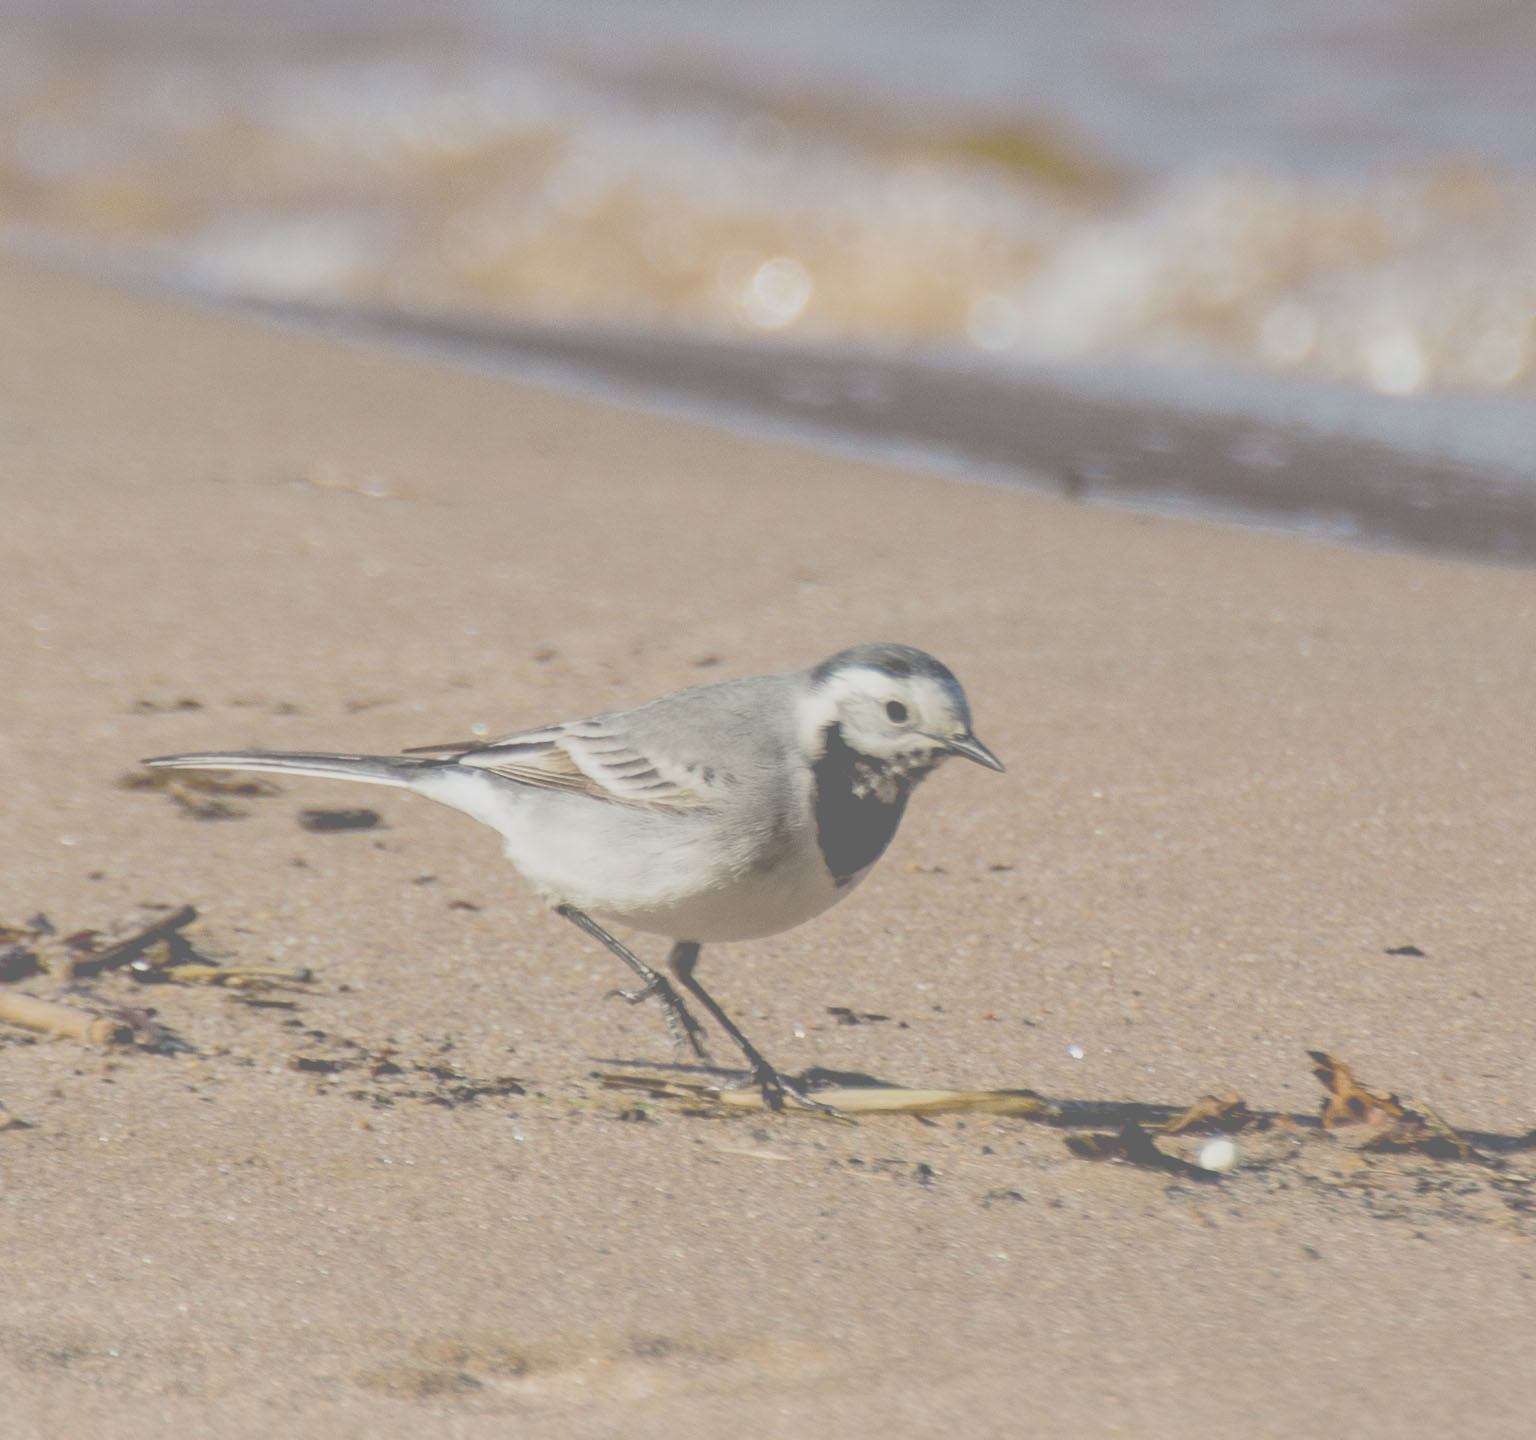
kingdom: Animalia
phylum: Chordata
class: Aves
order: Passeriformes
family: Motacillidae
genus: Motacilla
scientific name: Motacilla alba
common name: White wagtail
